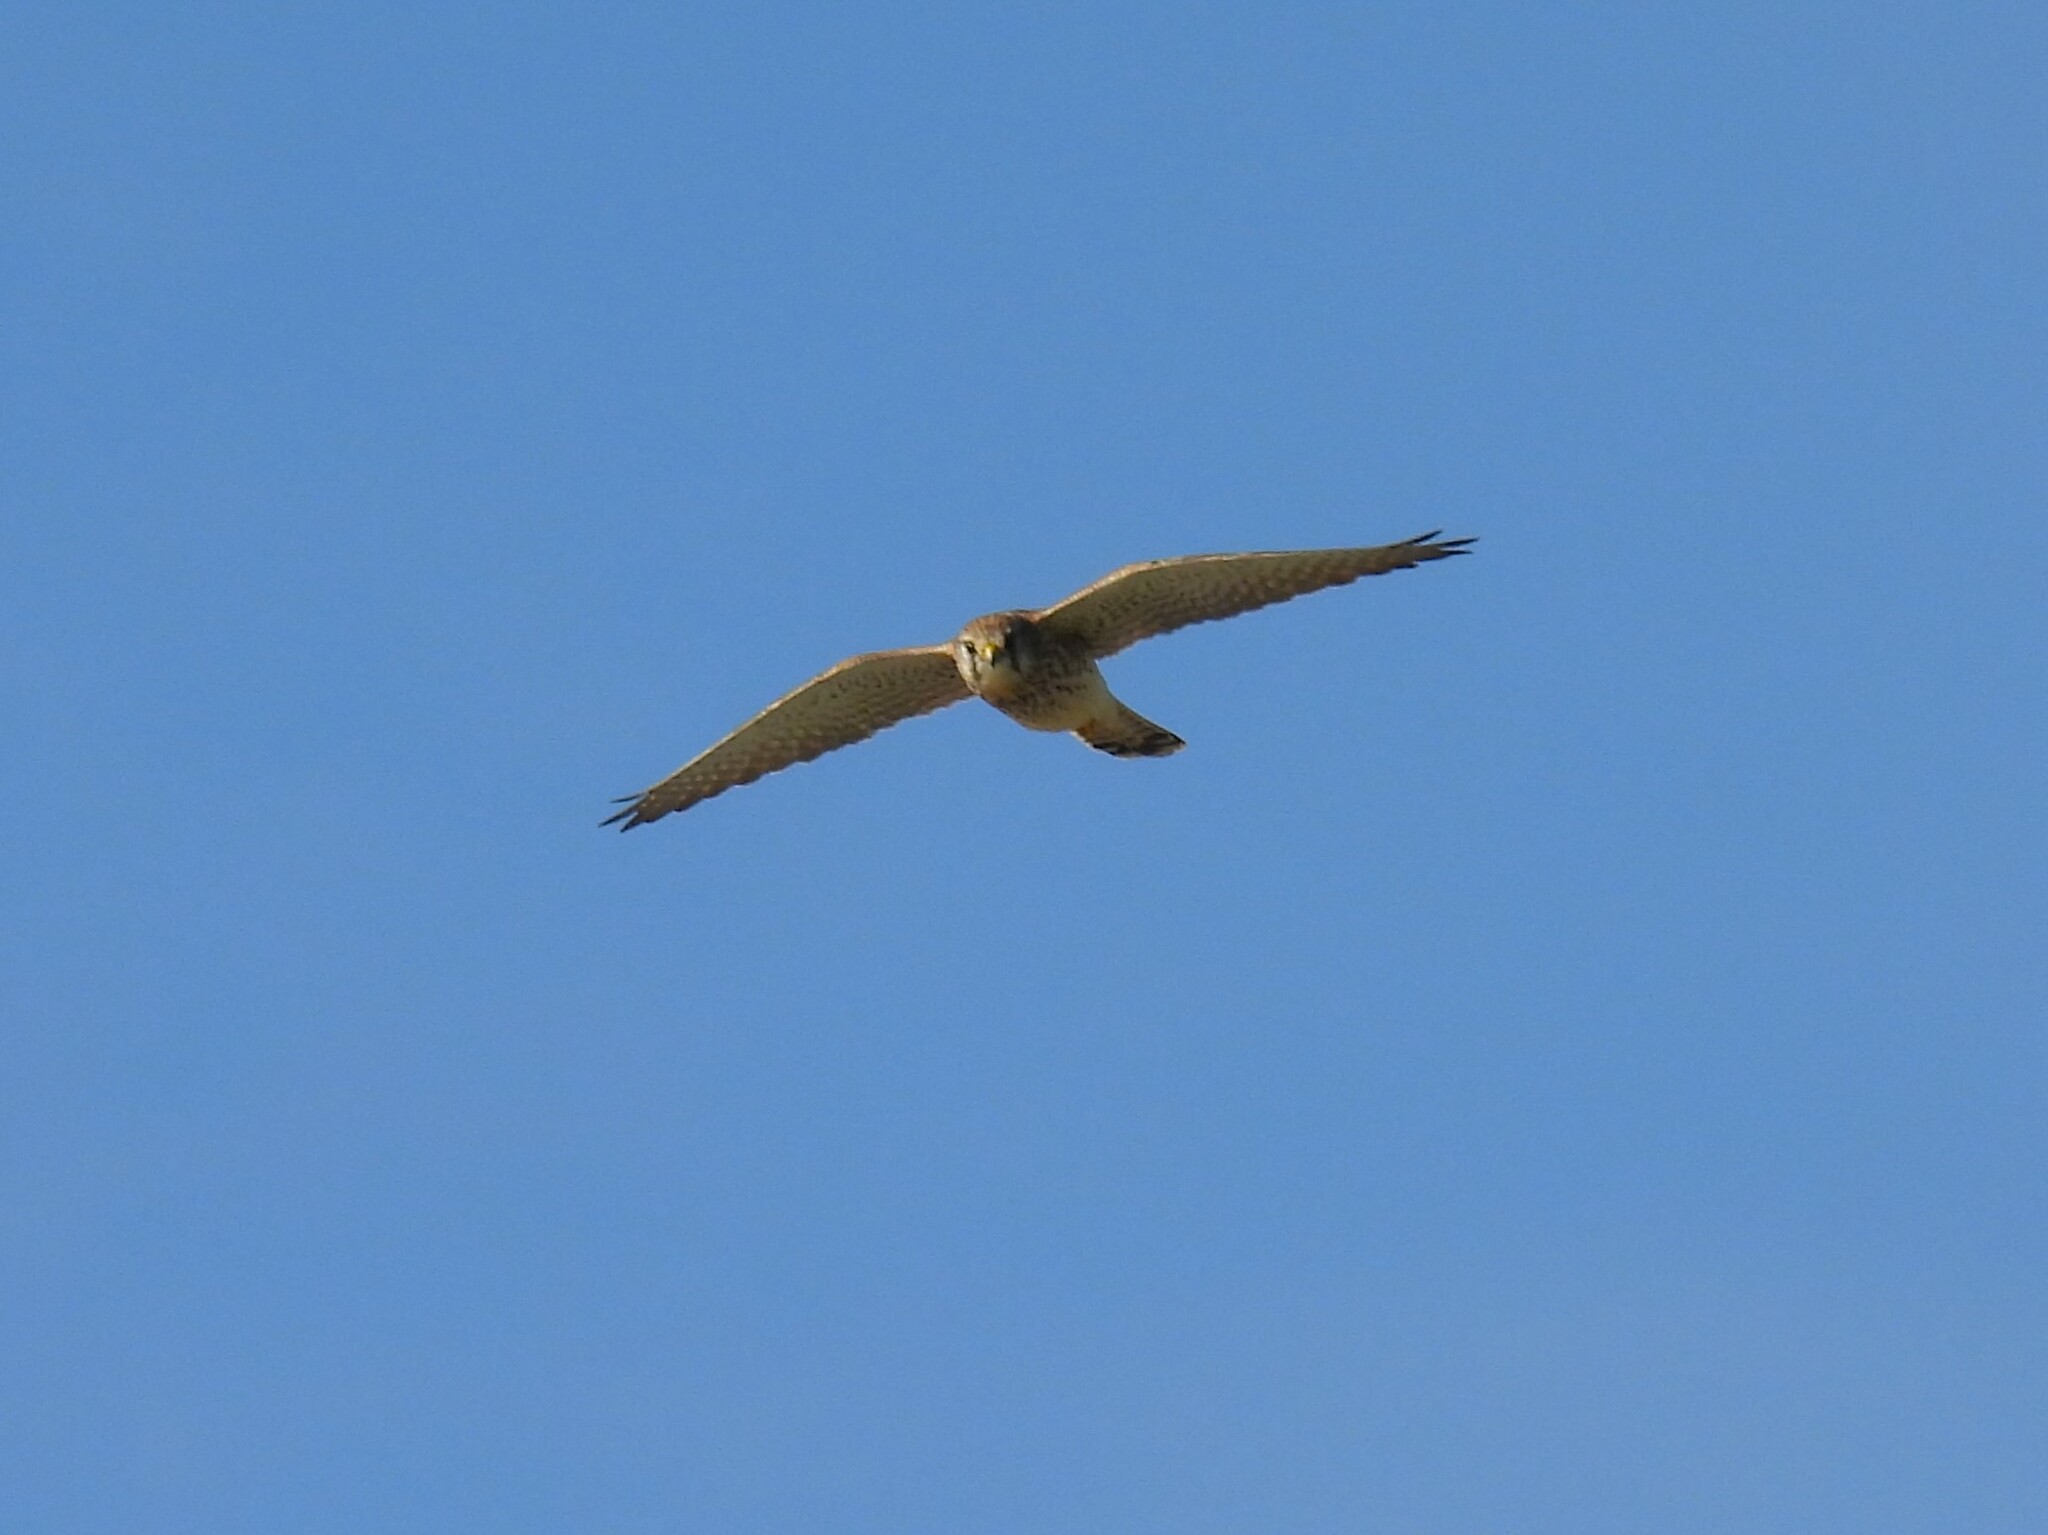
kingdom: Animalia
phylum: Chordata
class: Aves
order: Falconiformes
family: Falconidae
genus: Falco
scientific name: Falco tinnunculus
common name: Common kestrel
